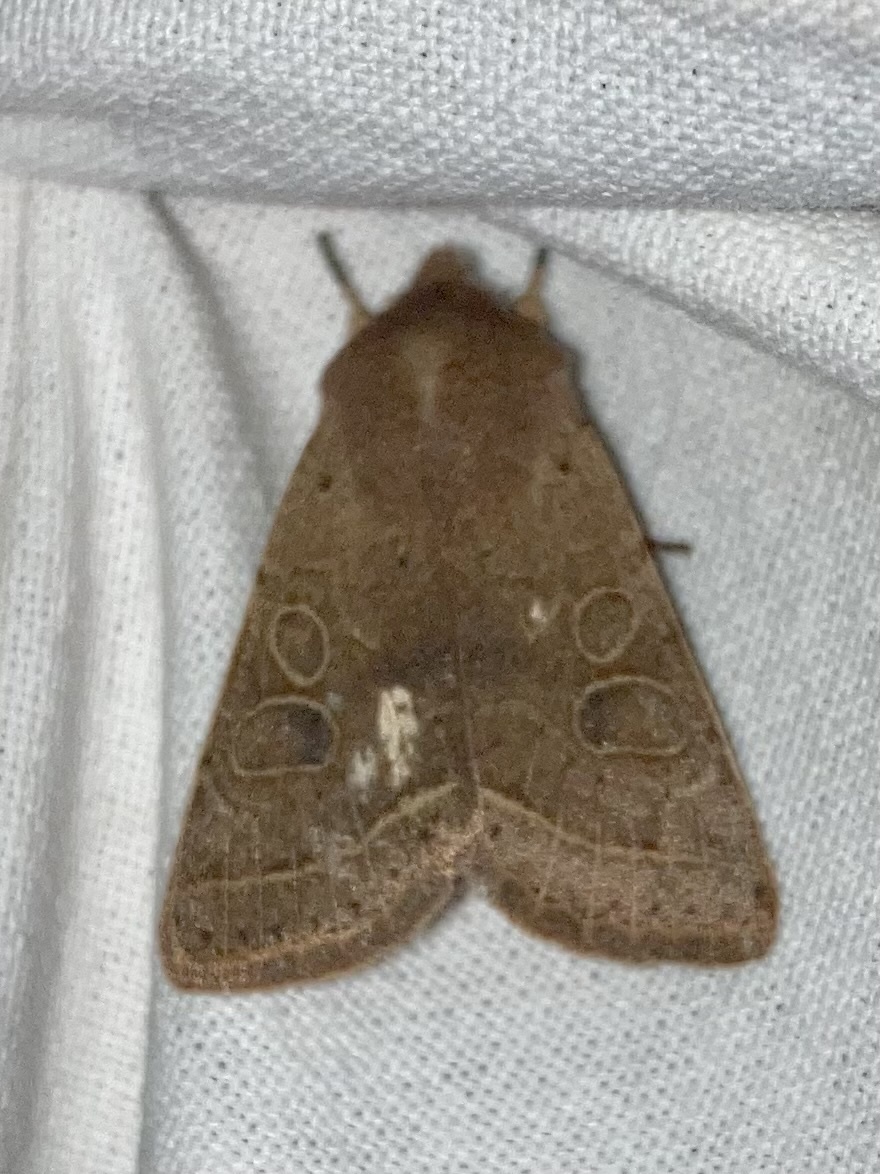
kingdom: Animalia
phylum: Arthropoda
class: Insecta
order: Lepidoptera
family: Noctuidae
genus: Orthosia
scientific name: Orthosia cerasi
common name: Common quaker
